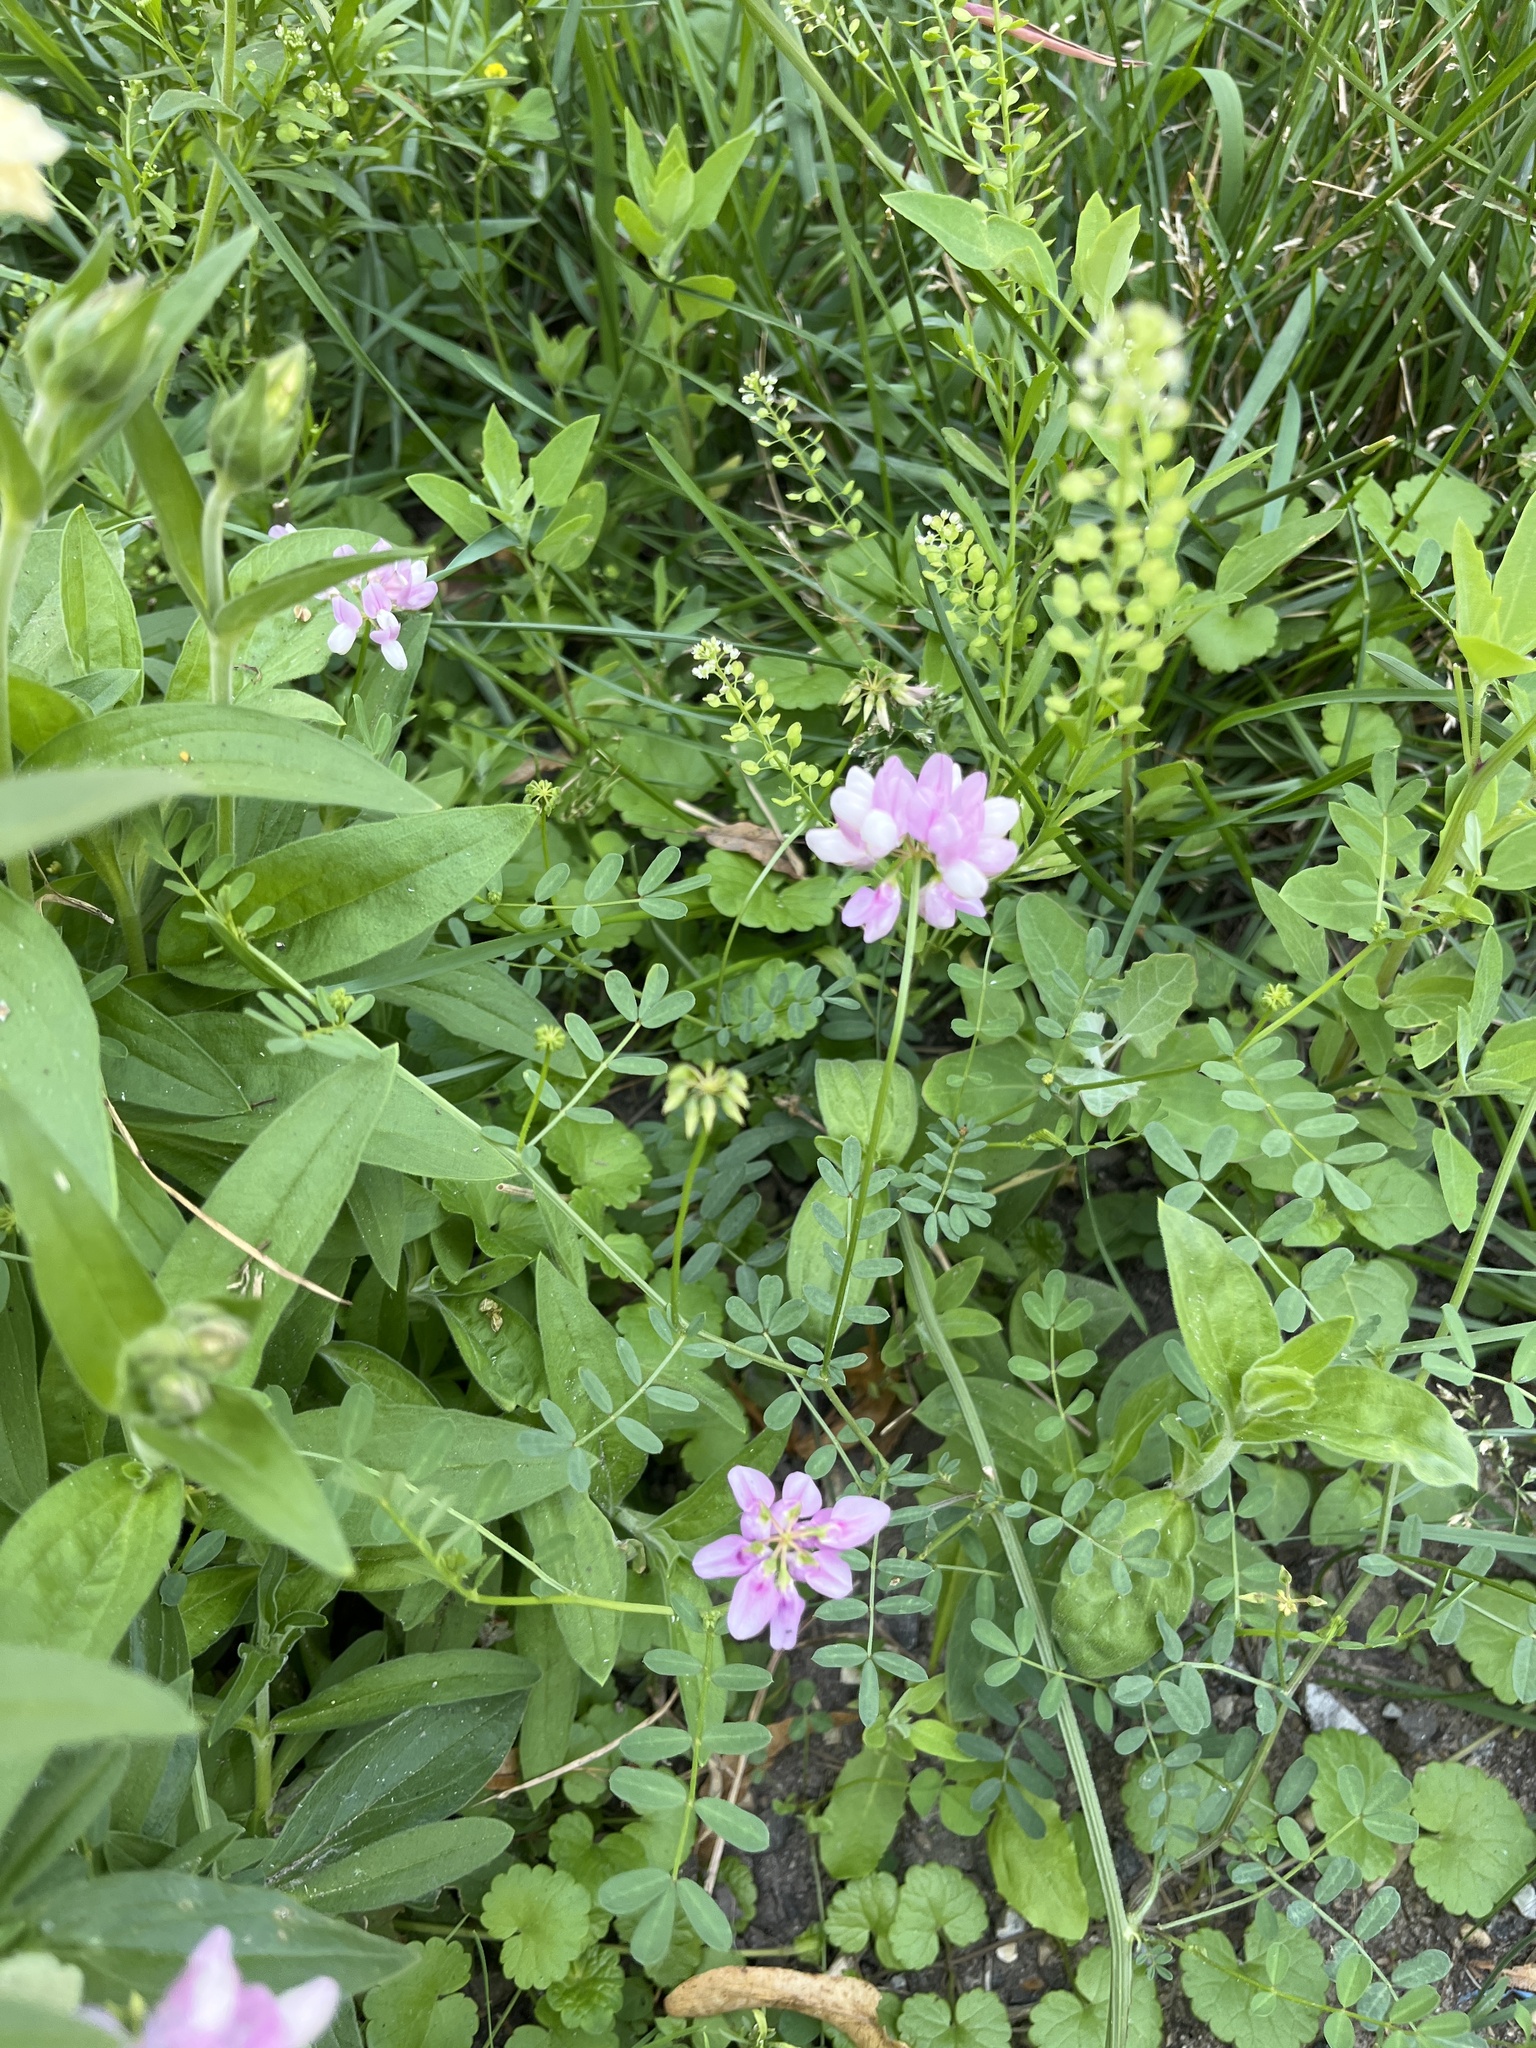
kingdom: Plantae
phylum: Tracheophyta
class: Magnoliopsida
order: Fabales
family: Fabaceae
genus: Coronilla
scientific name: Coronilla varia
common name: Crownvetch
